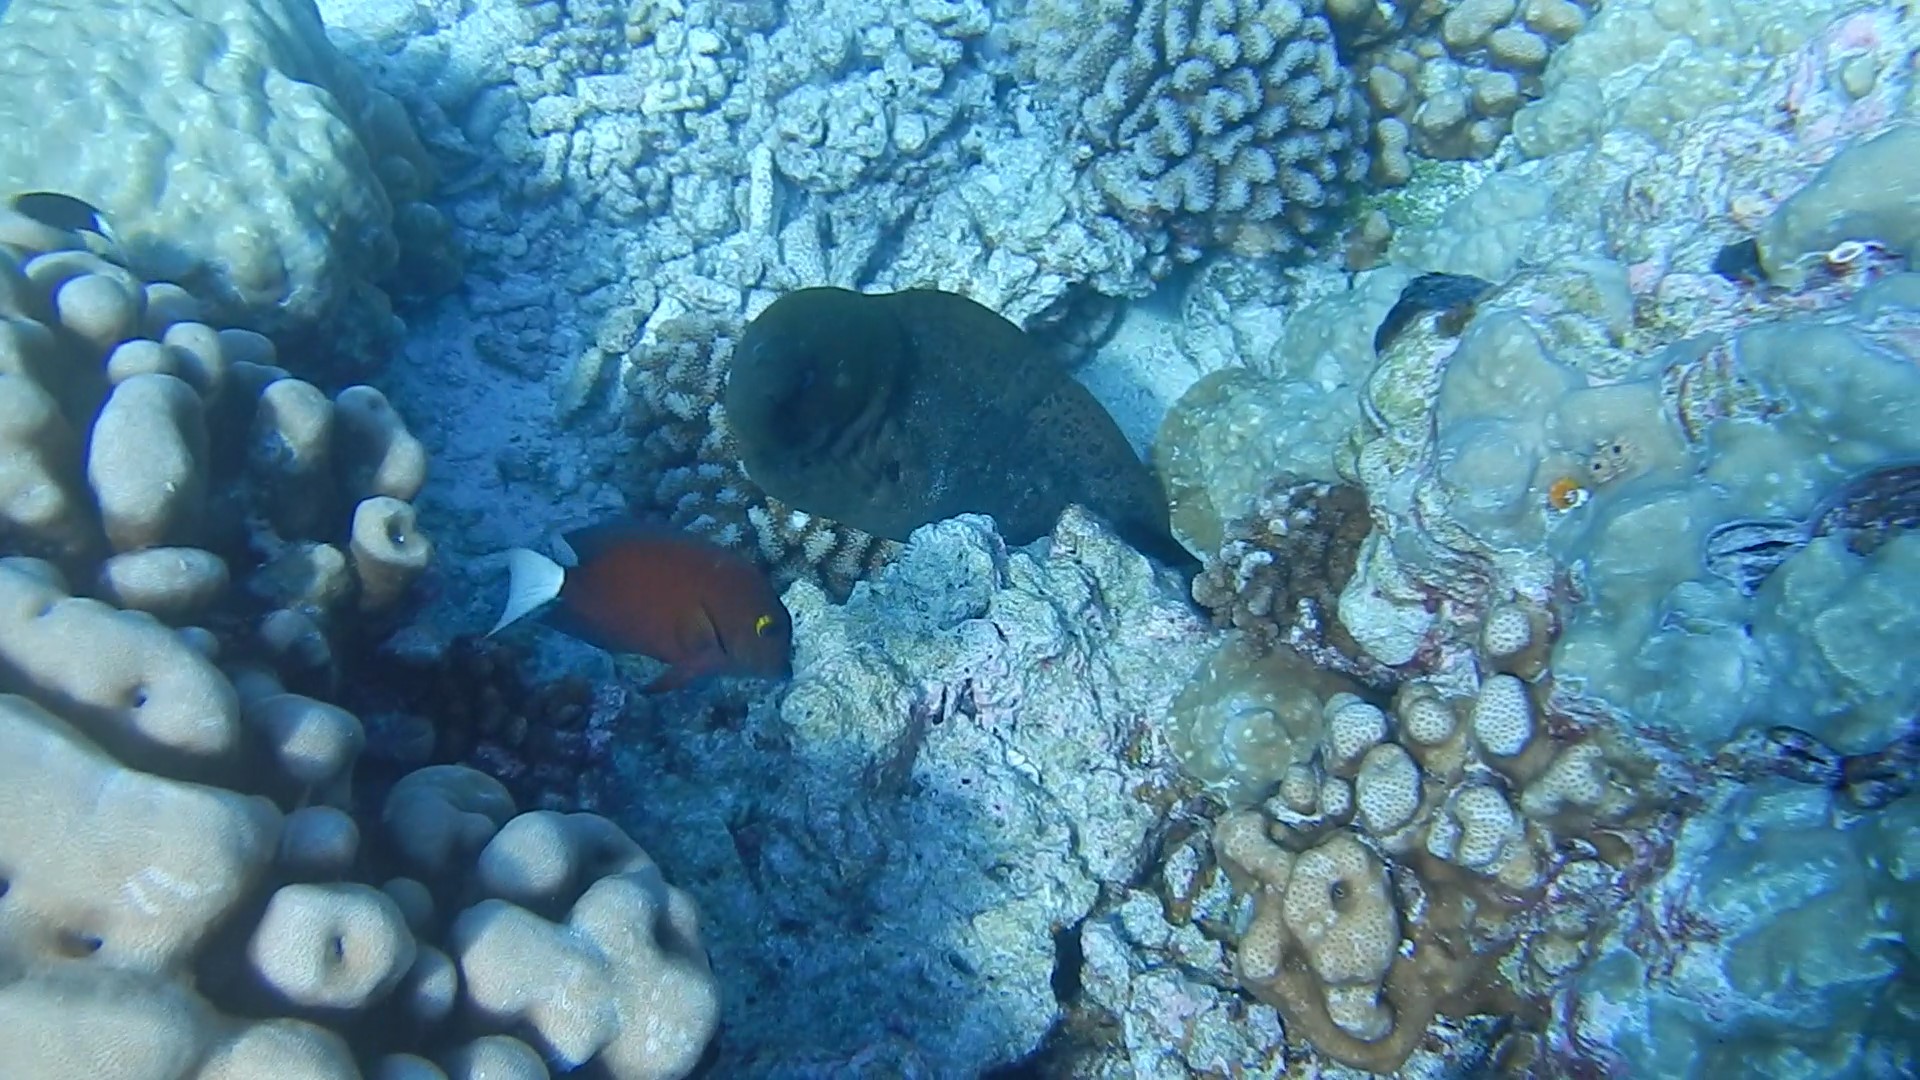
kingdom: Animalia
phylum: Chordata
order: Perciformes
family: Acanthuridae
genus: Ctenochaetus
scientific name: Ctenochaetus flavicauda
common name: Whitetail bristletooth
